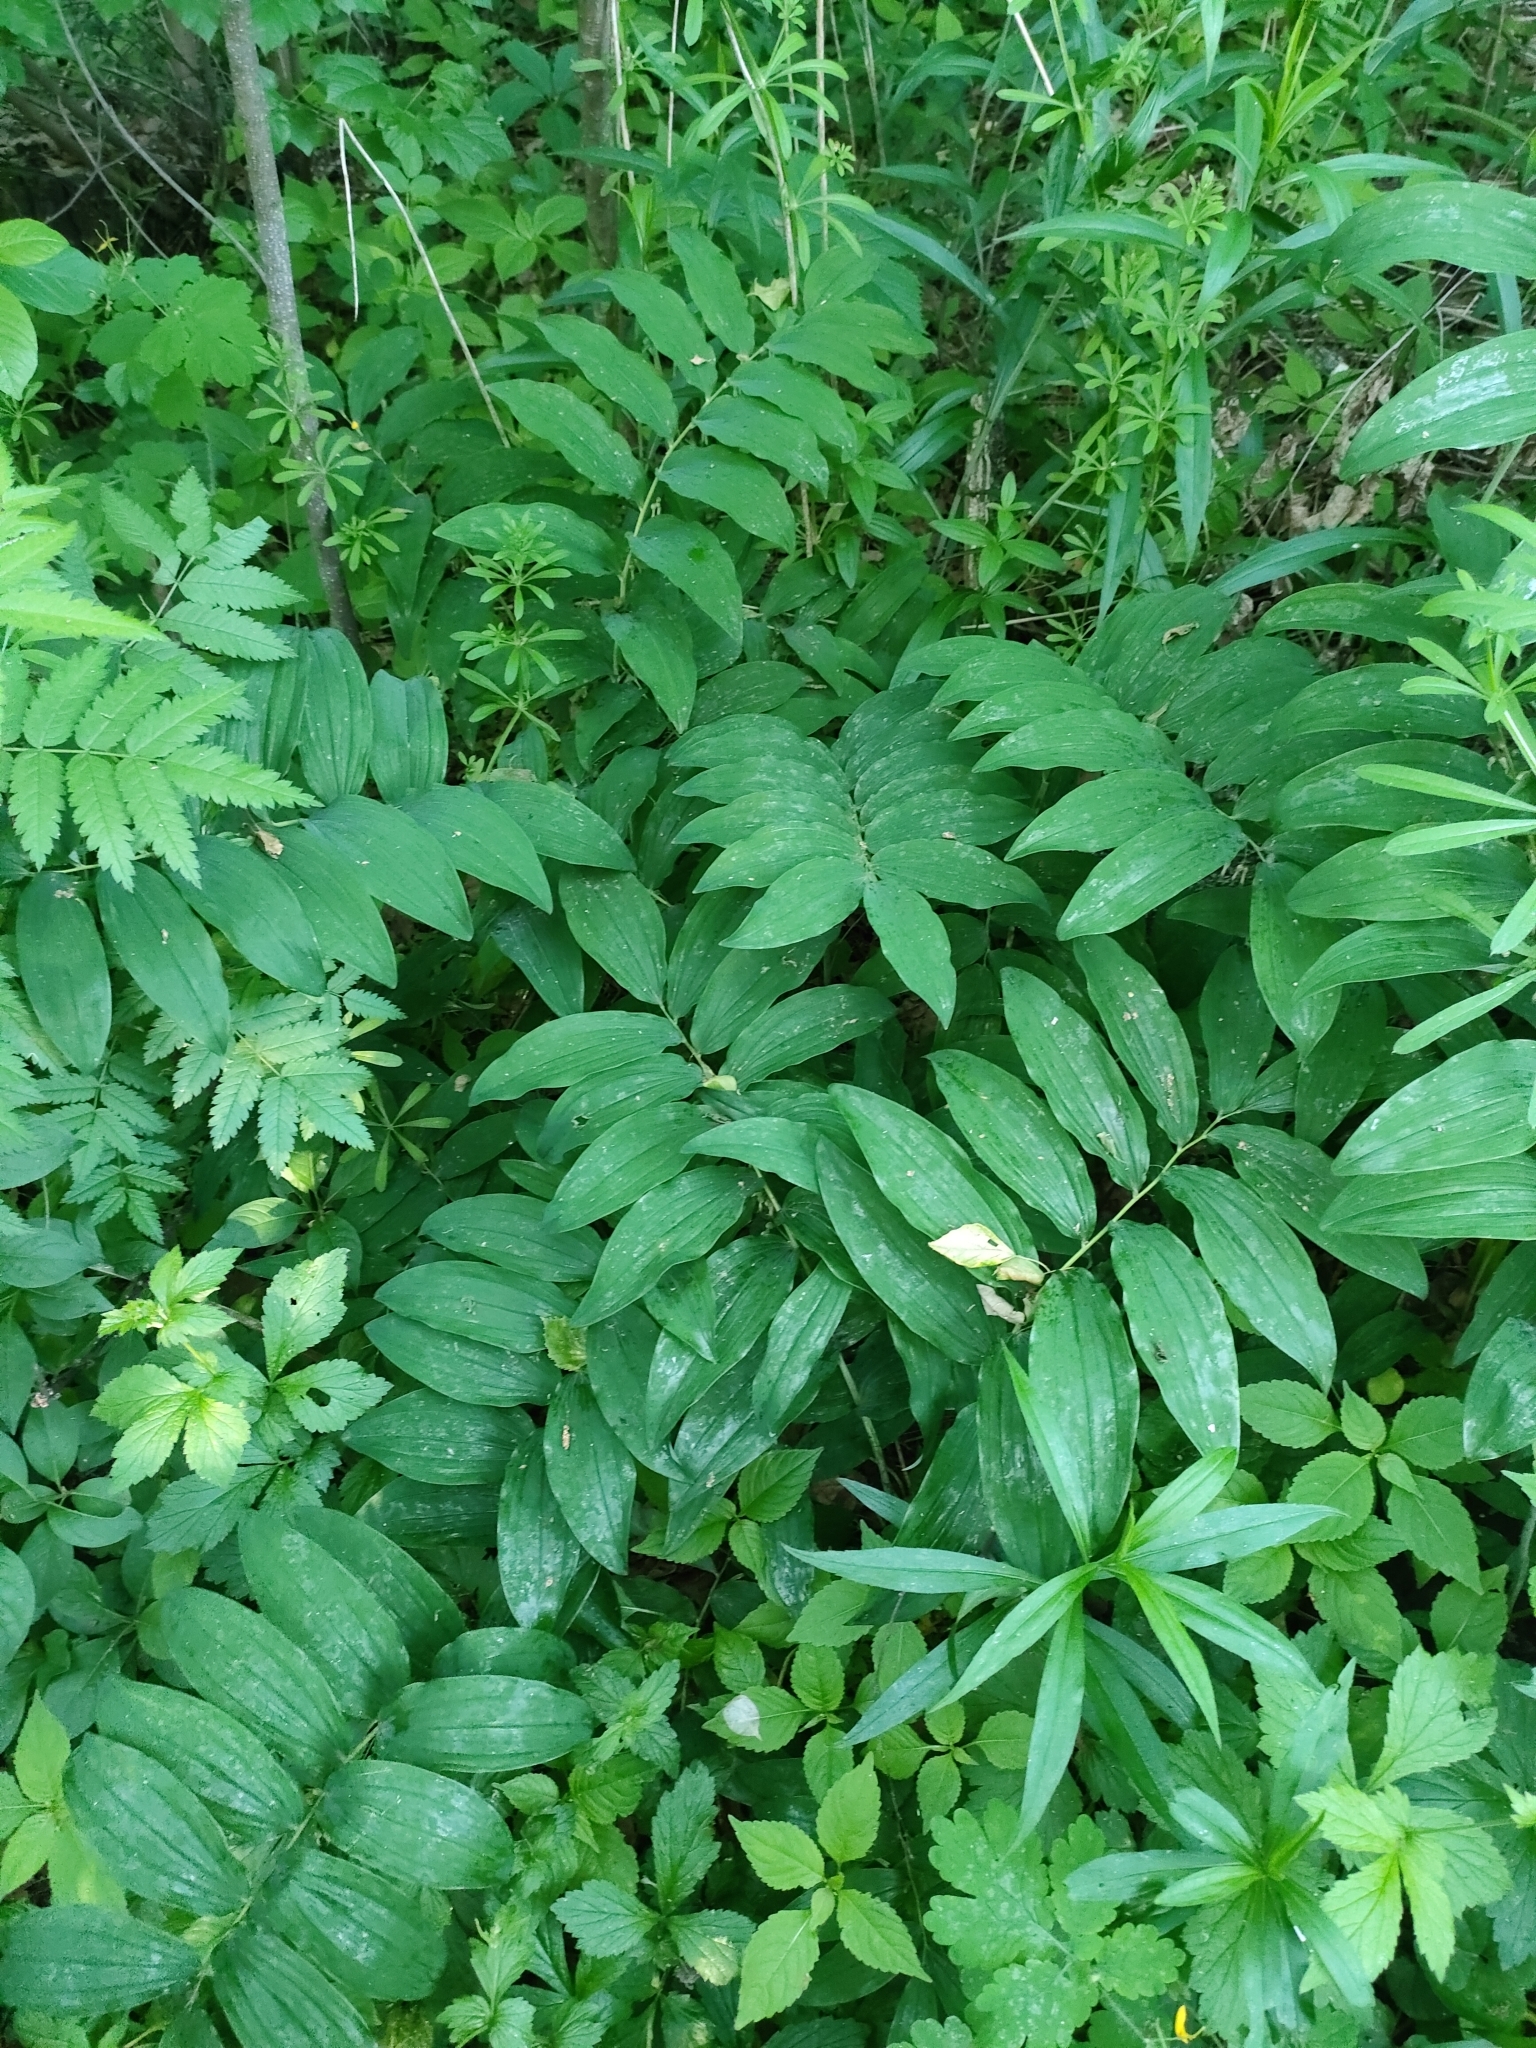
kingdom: Plantae
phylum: Tracheophyta
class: Liliopsida
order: Asparagales
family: Asparagaceae
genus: Polygonatum
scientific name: Polygonatum multiflorum
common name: Solomon's-seal
